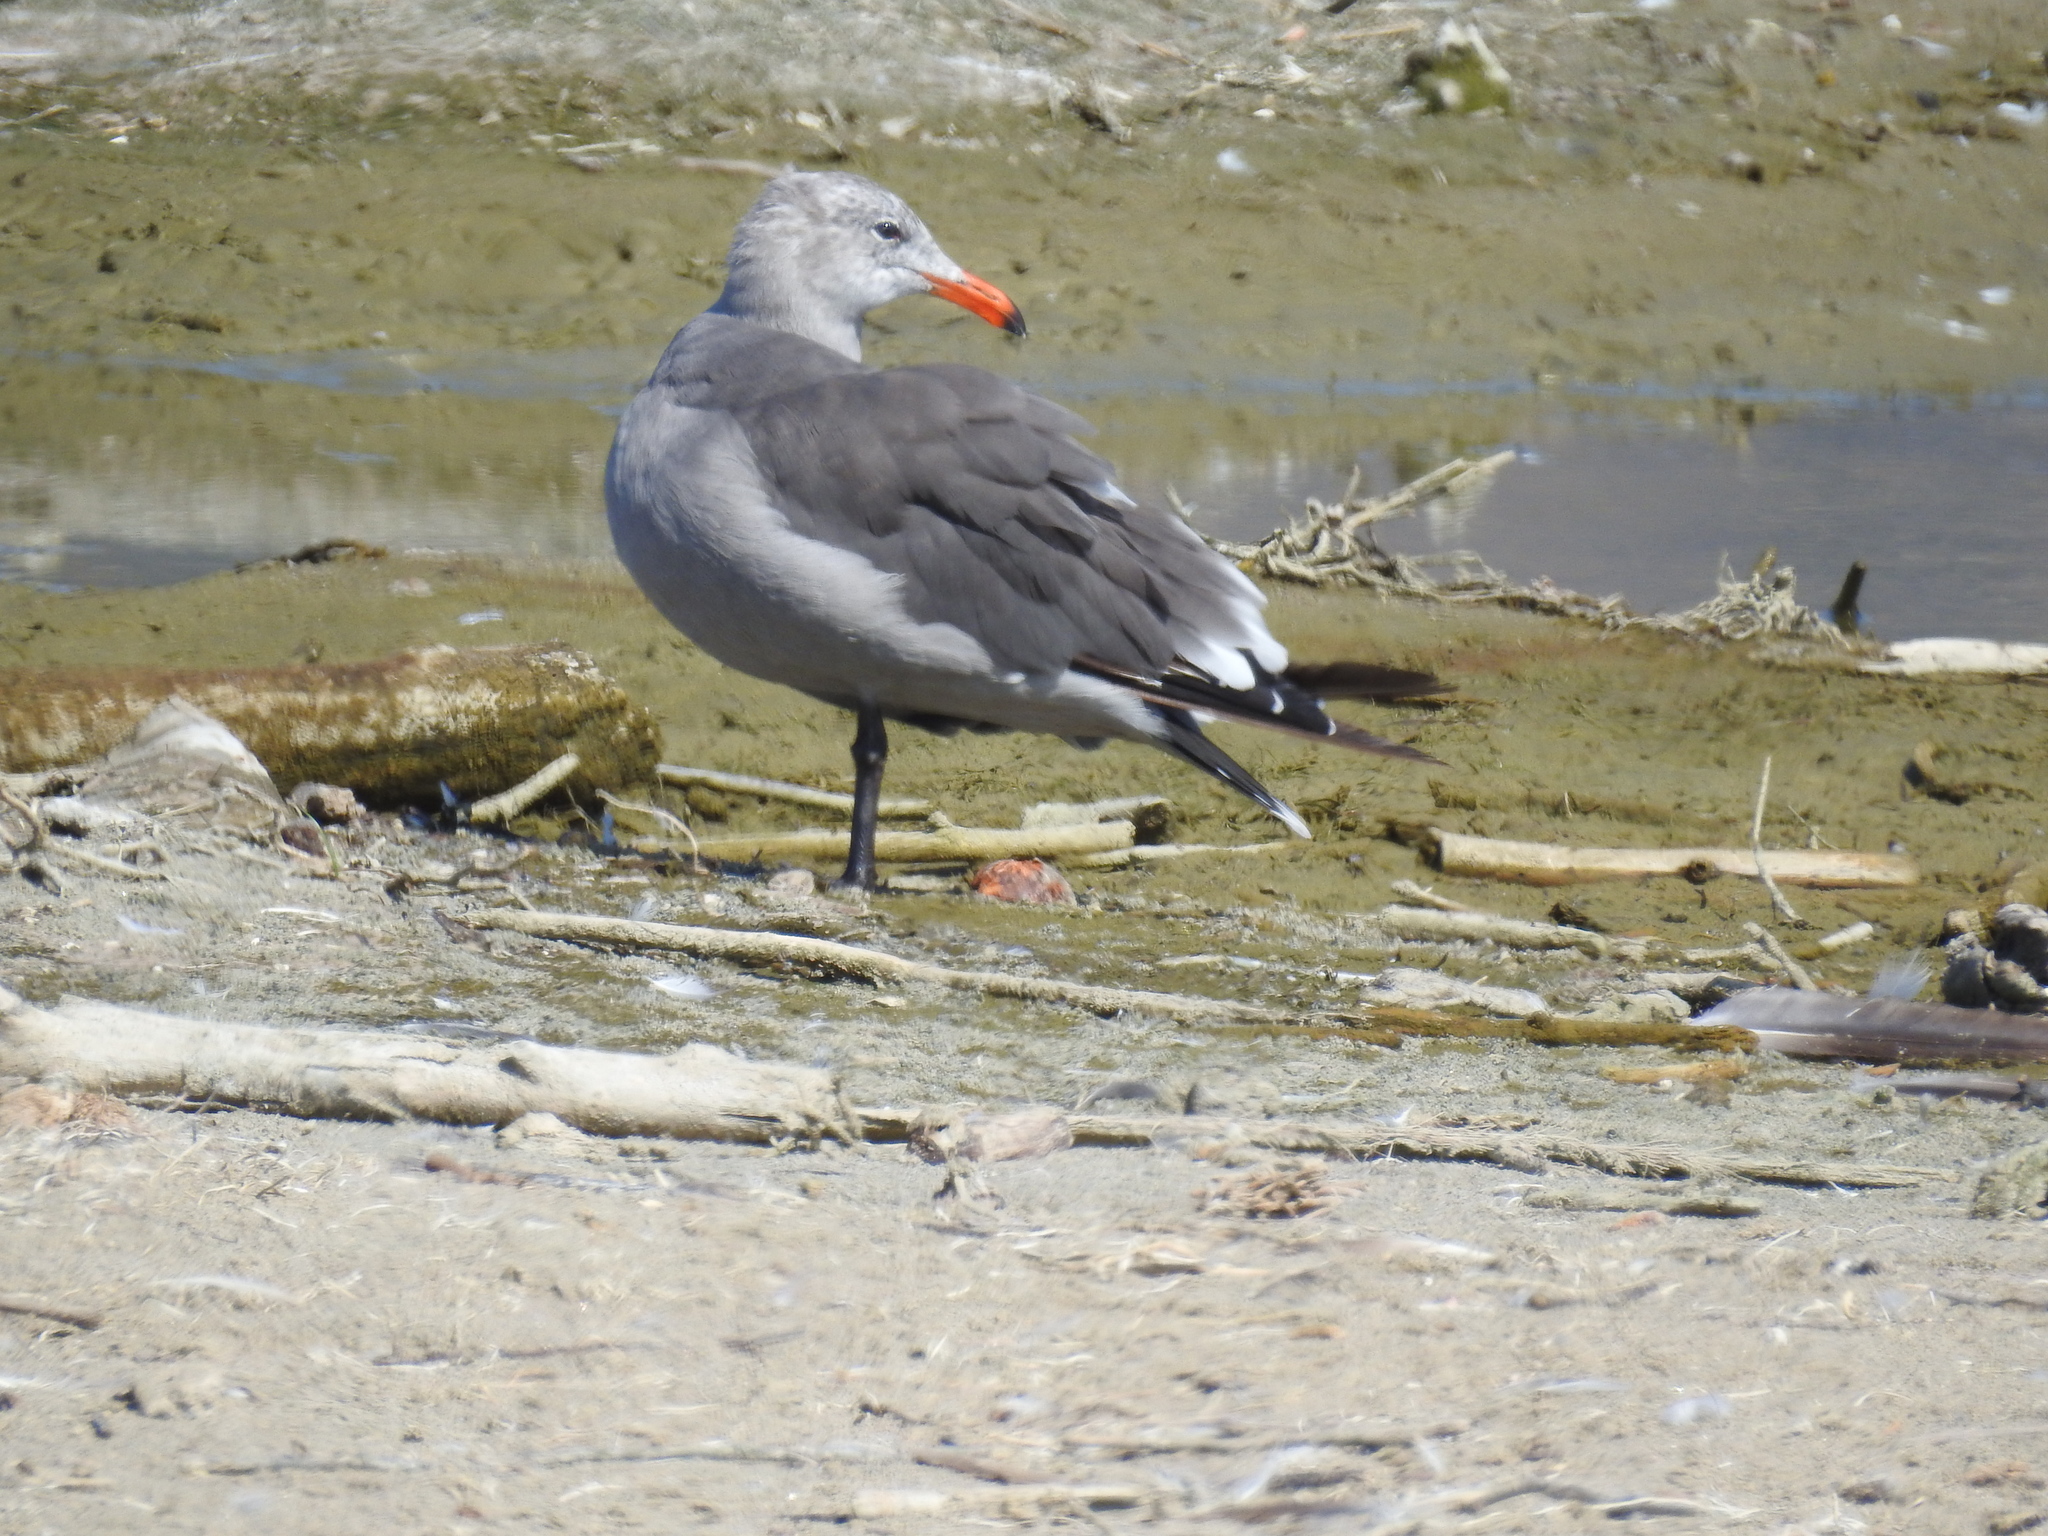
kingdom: Animalia
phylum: Chordata
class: Aves
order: Charadriiformes
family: Laridae
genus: Larus
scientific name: Larus heermanni
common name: Heermann's gull
